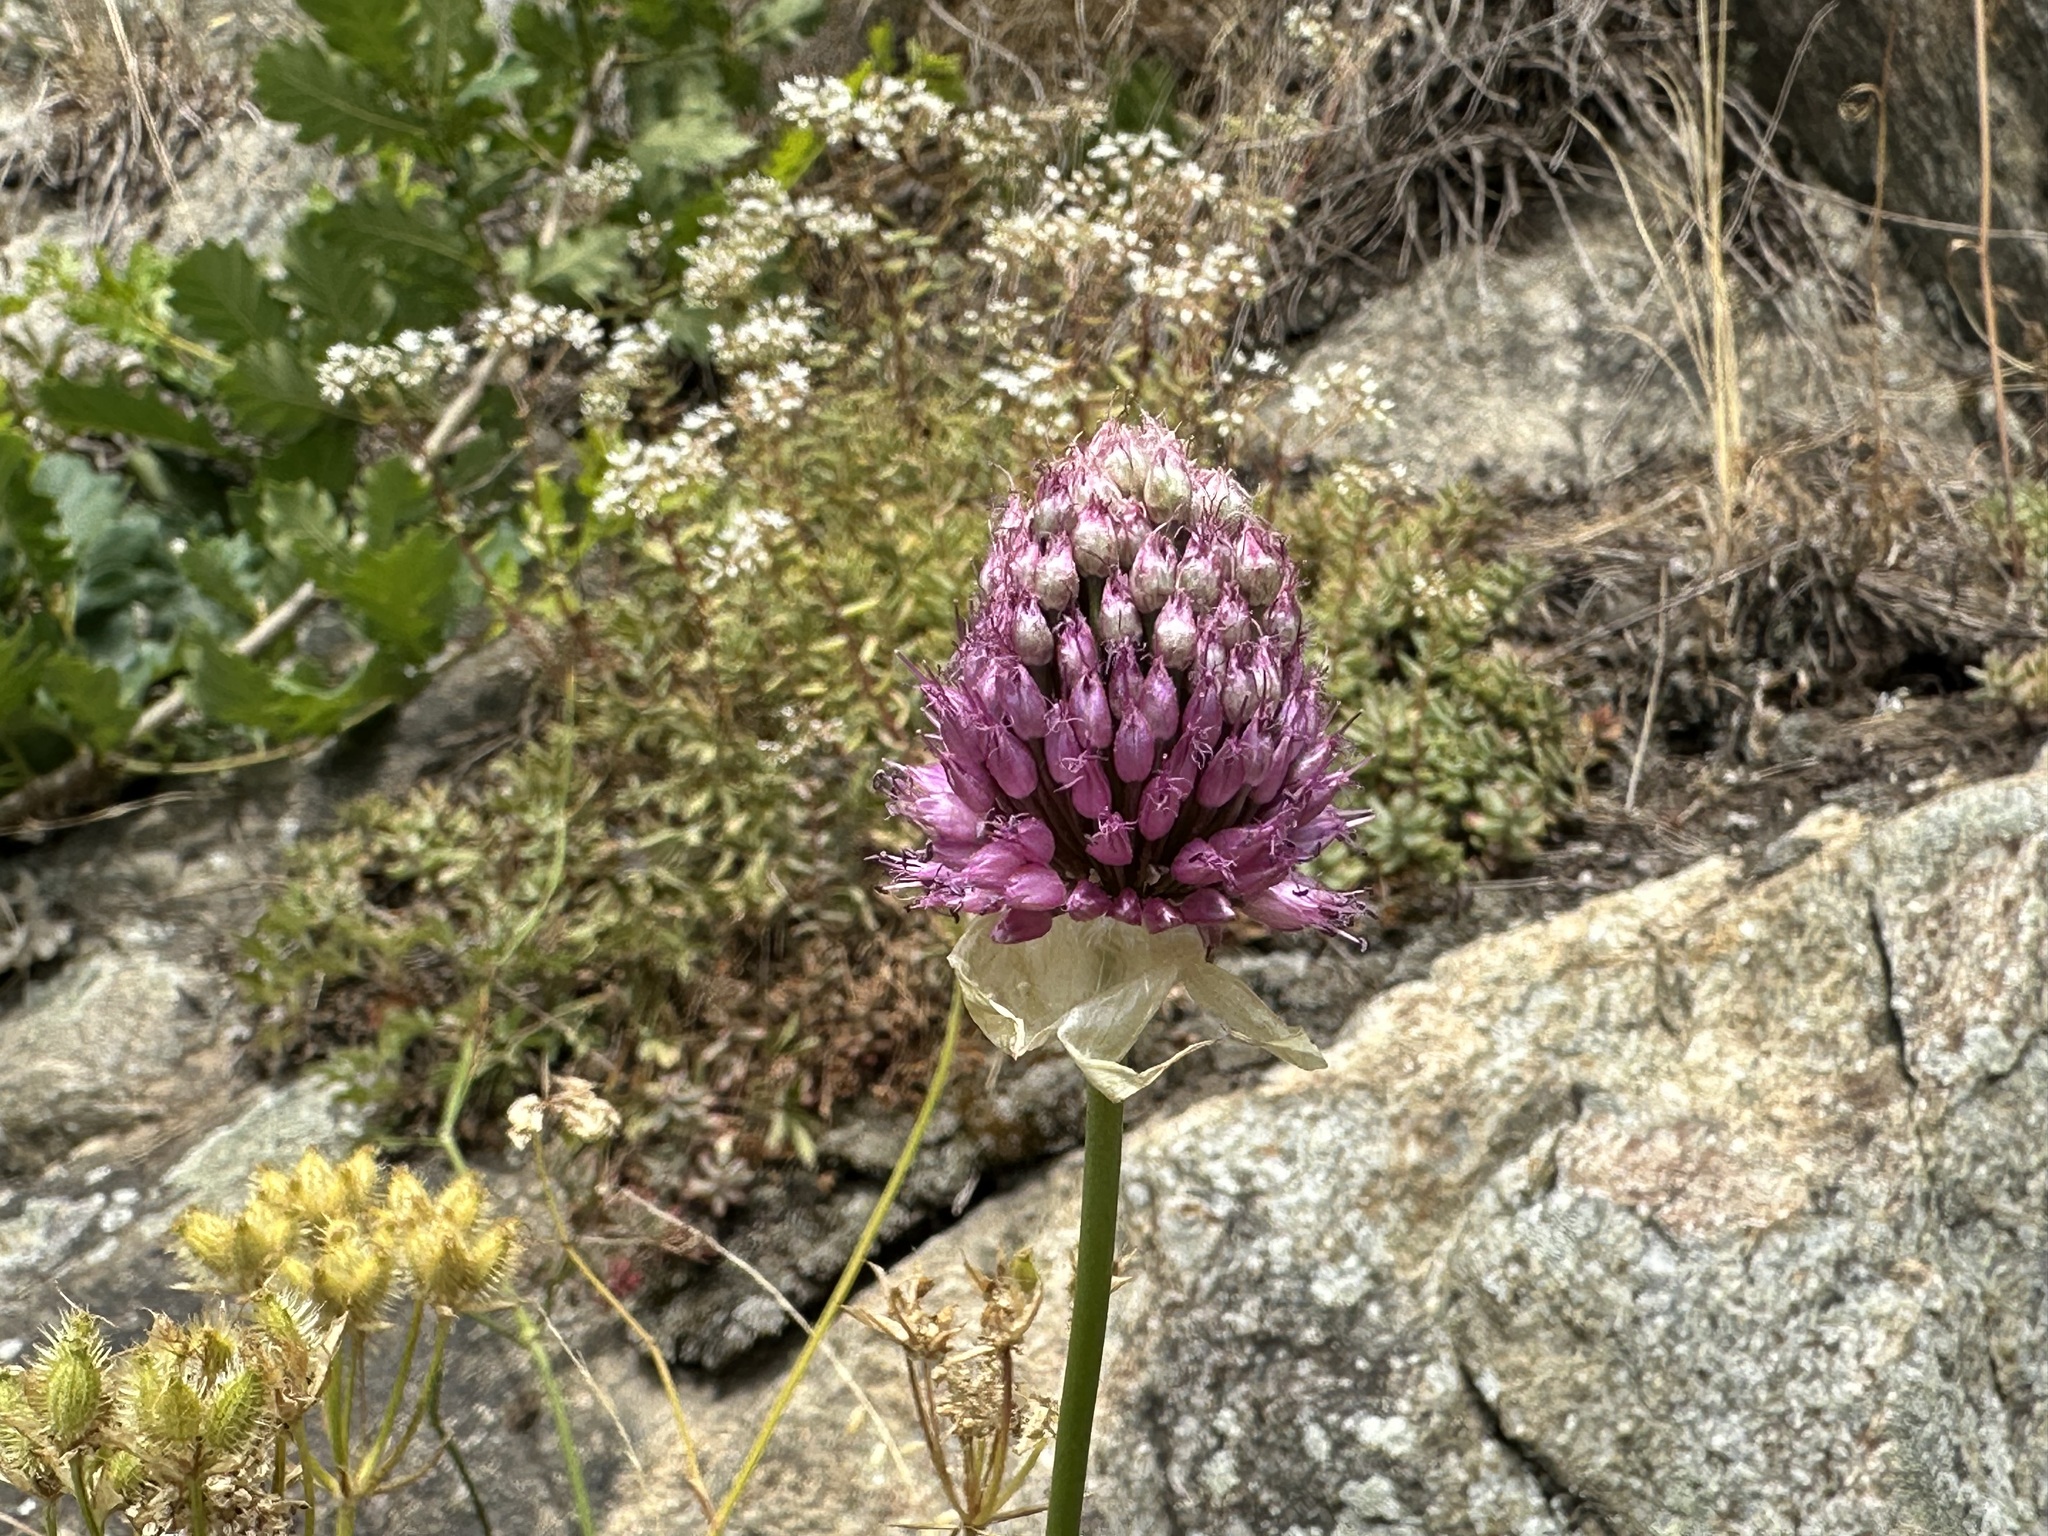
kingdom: Plantae
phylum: Tracheophyta
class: Liliopsida
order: Asparagales
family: Amaryllidaceae
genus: Allium
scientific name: Allium sphaerocephalon
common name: Round-headed leek
